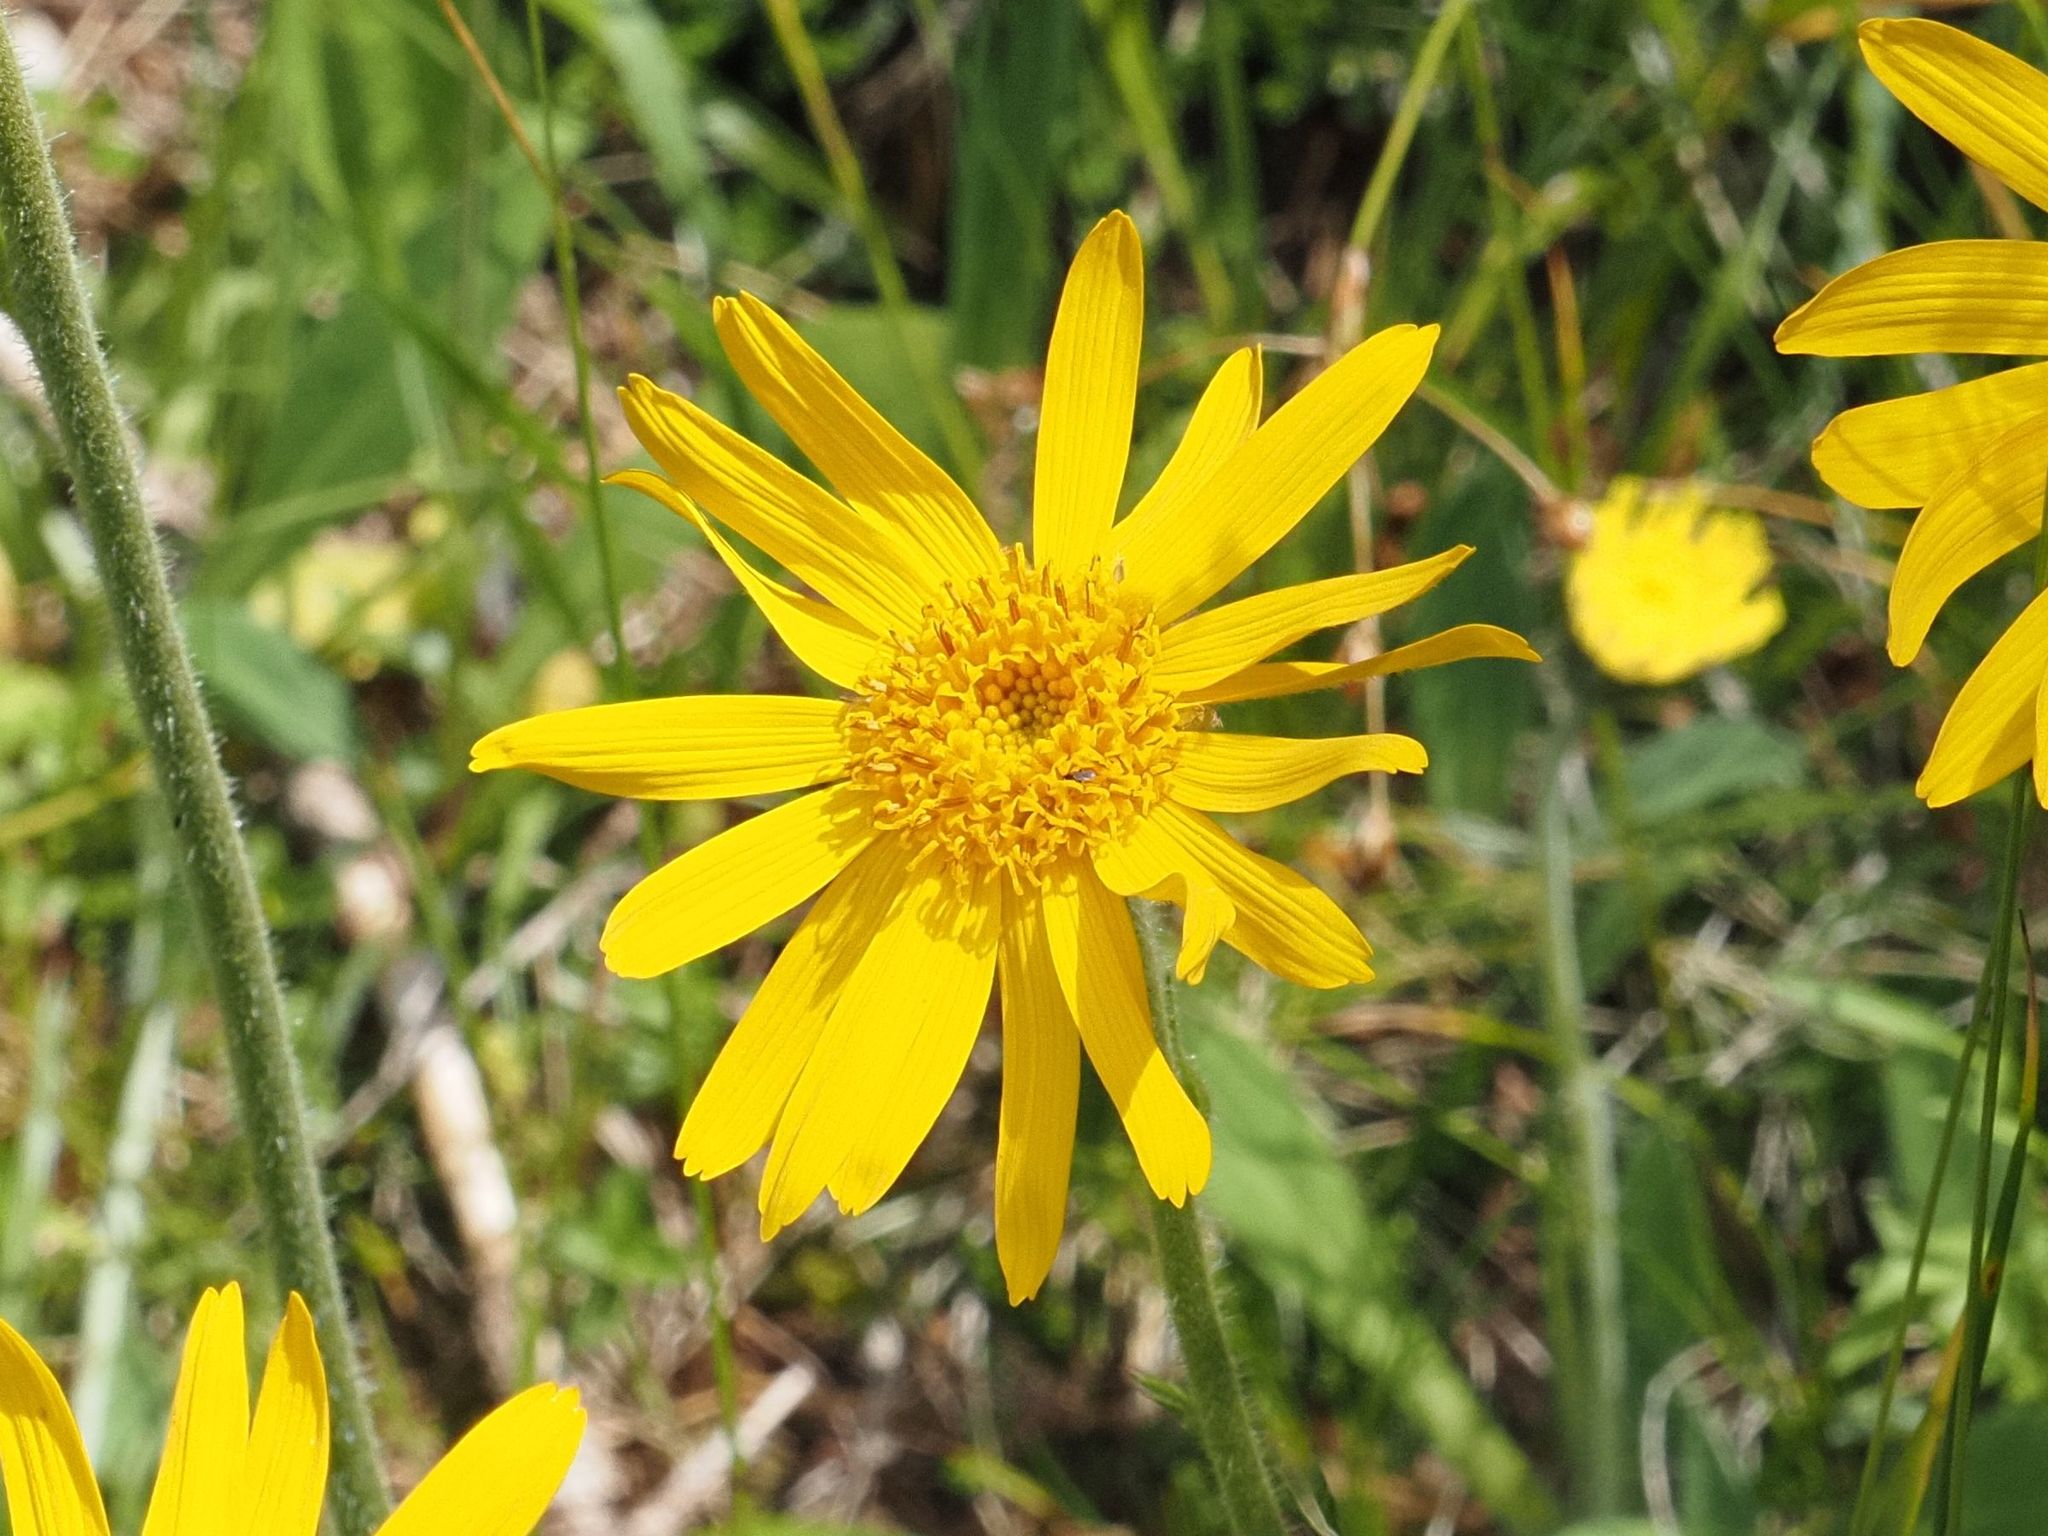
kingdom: Plantae
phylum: Tracheophyta
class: Magnoliopsida
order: Asterales
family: Asteraceae
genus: Arnica
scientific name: Arnica montana
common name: Leopard's bane
